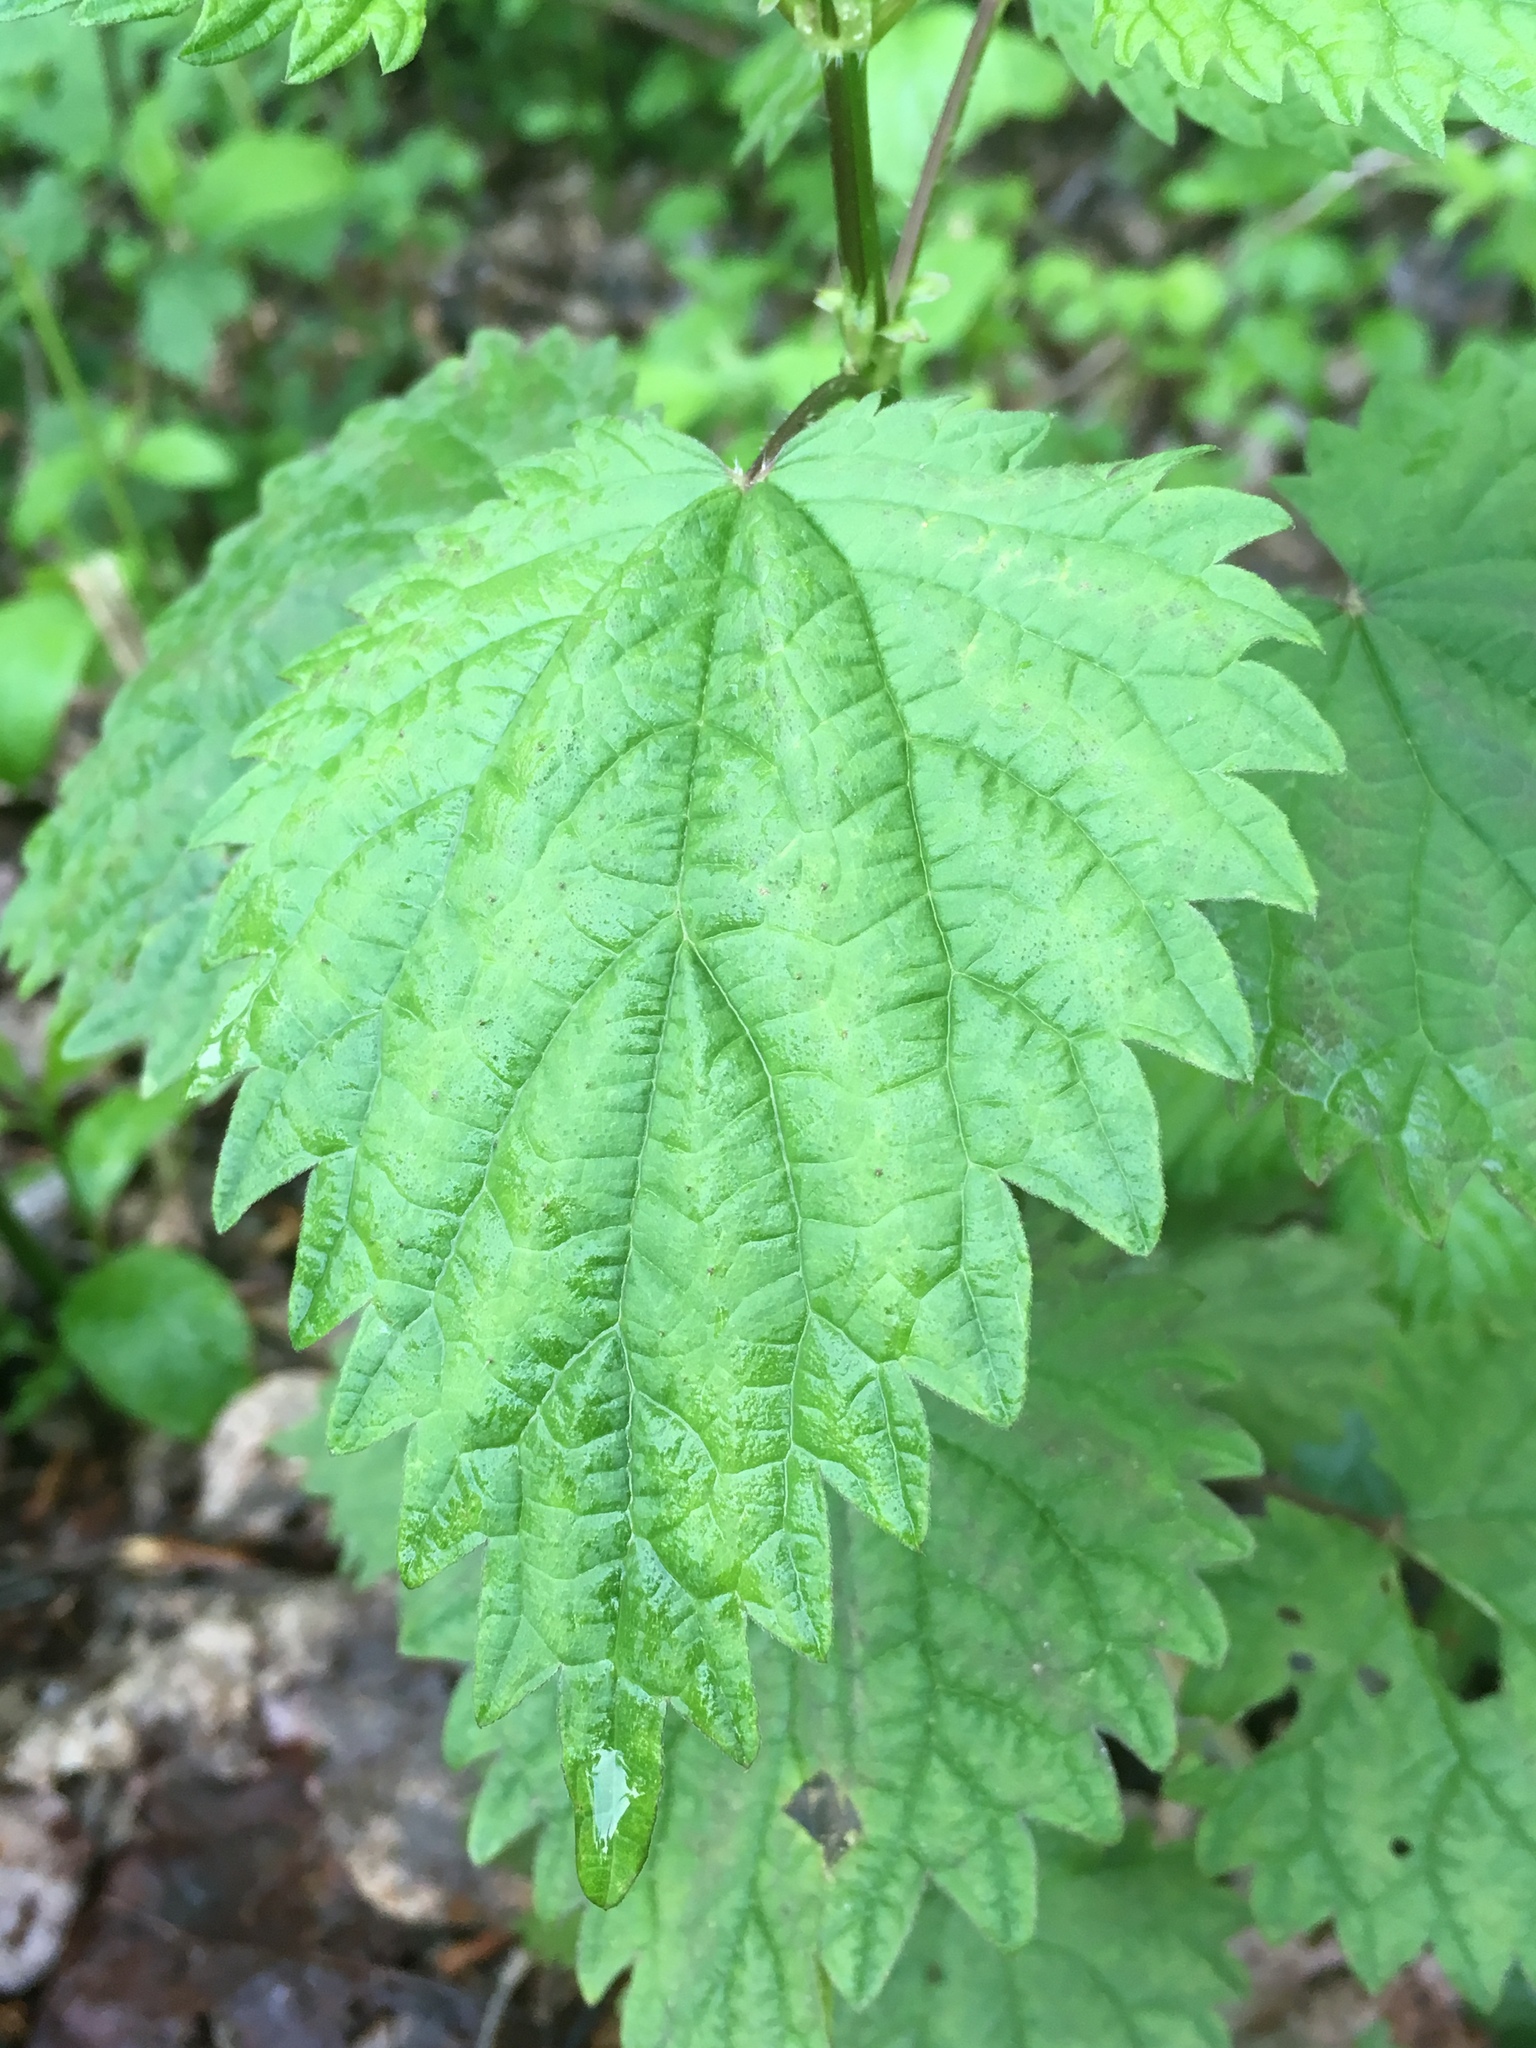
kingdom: Plantae
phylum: Tracheophyta
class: Magnoliopsida
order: Rosales
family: Urticaceae
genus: Urtica
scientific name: Urtica dioica
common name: Common nettle
